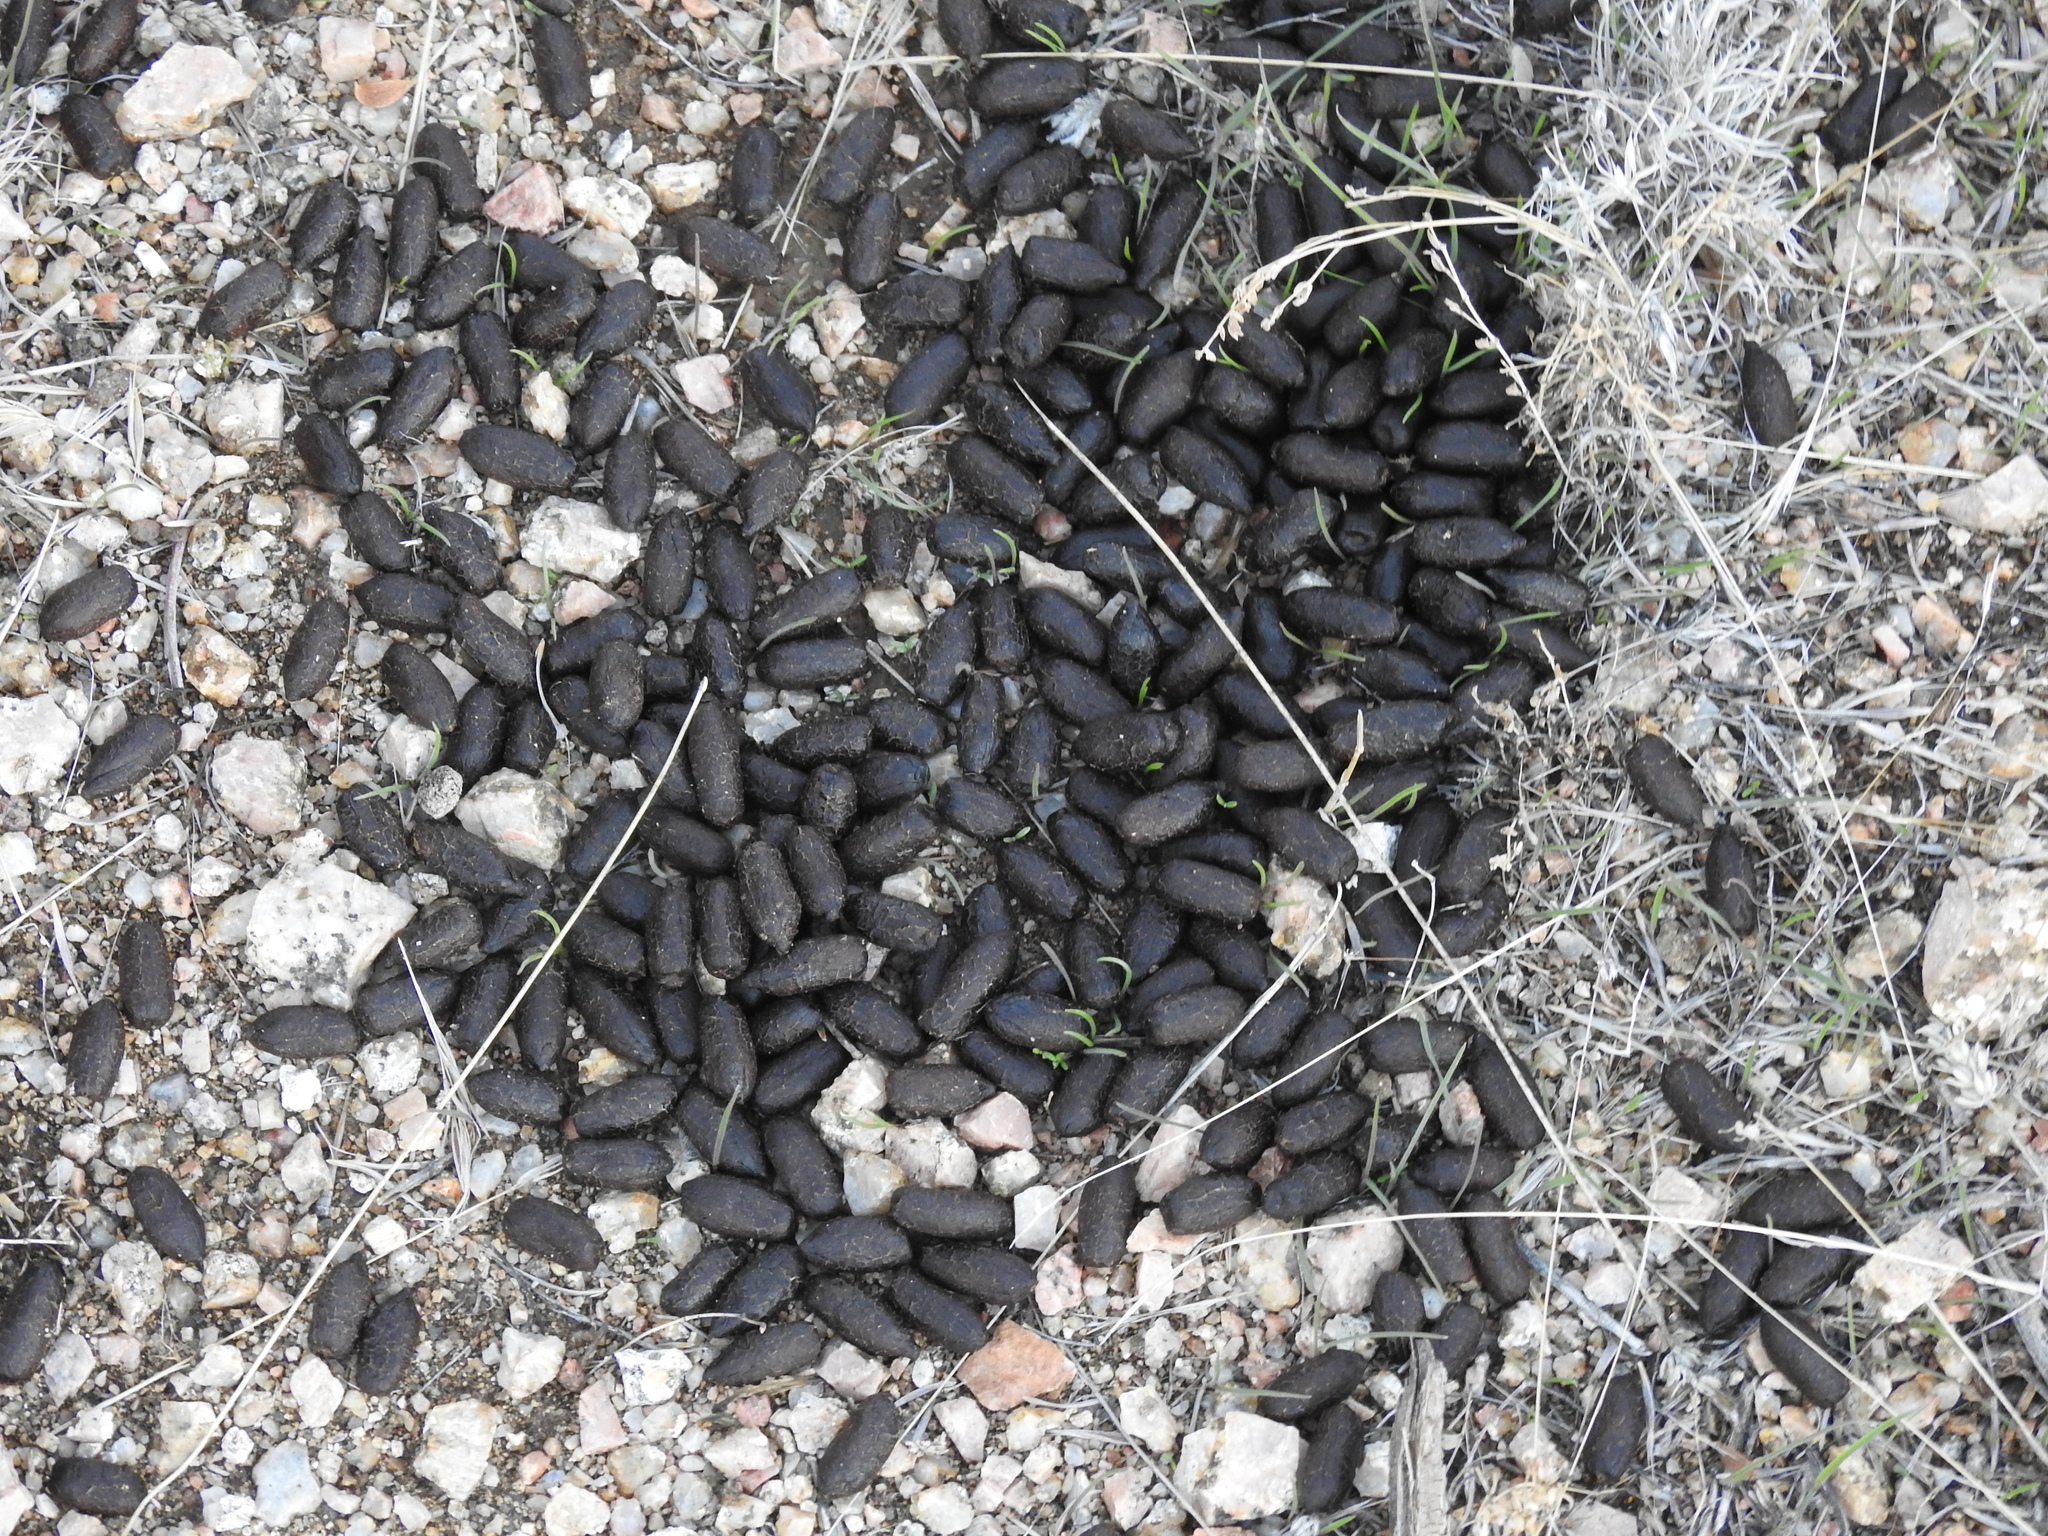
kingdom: Animalia
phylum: Chordata
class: Mammalia
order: Artiodactyla
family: Cervidae
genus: Odocoileus
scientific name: Odocoileus hemionus
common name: Mule deer
